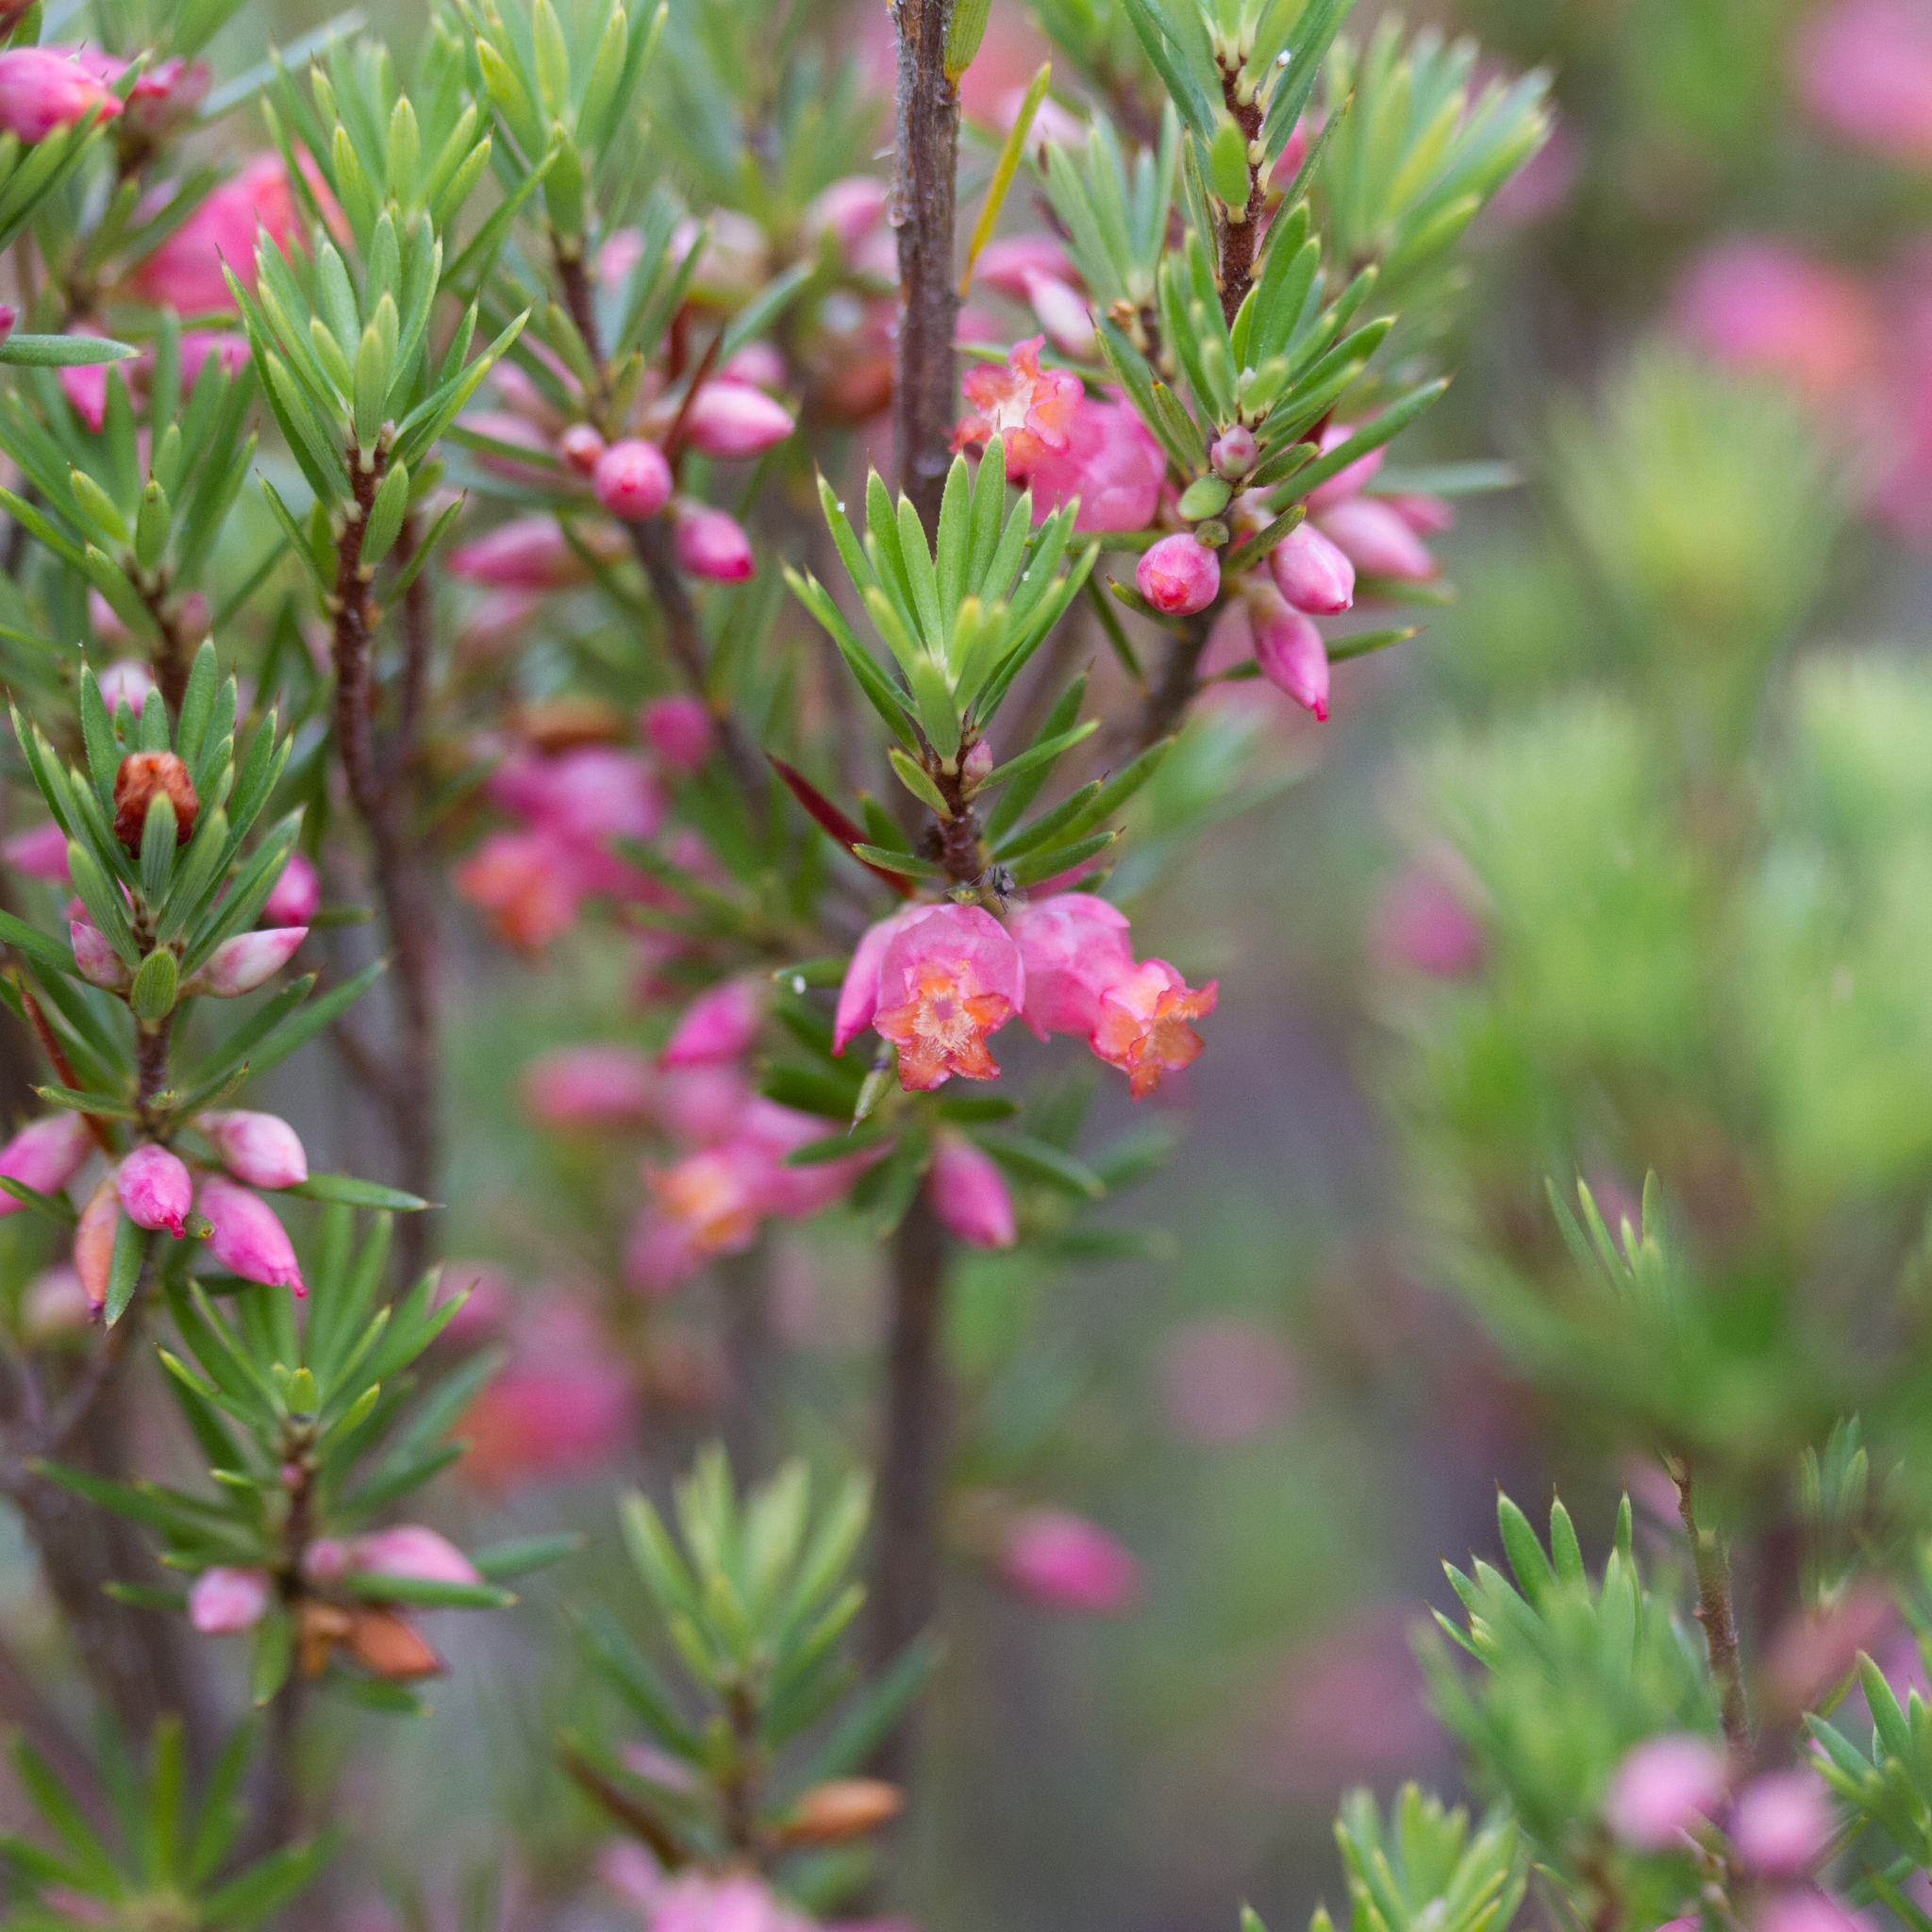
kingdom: Plantae
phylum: Tracheophyta
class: Magnoliopsida
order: Ericales
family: Ericaceae
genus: Brachyloma
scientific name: Brachyloma ericoides
